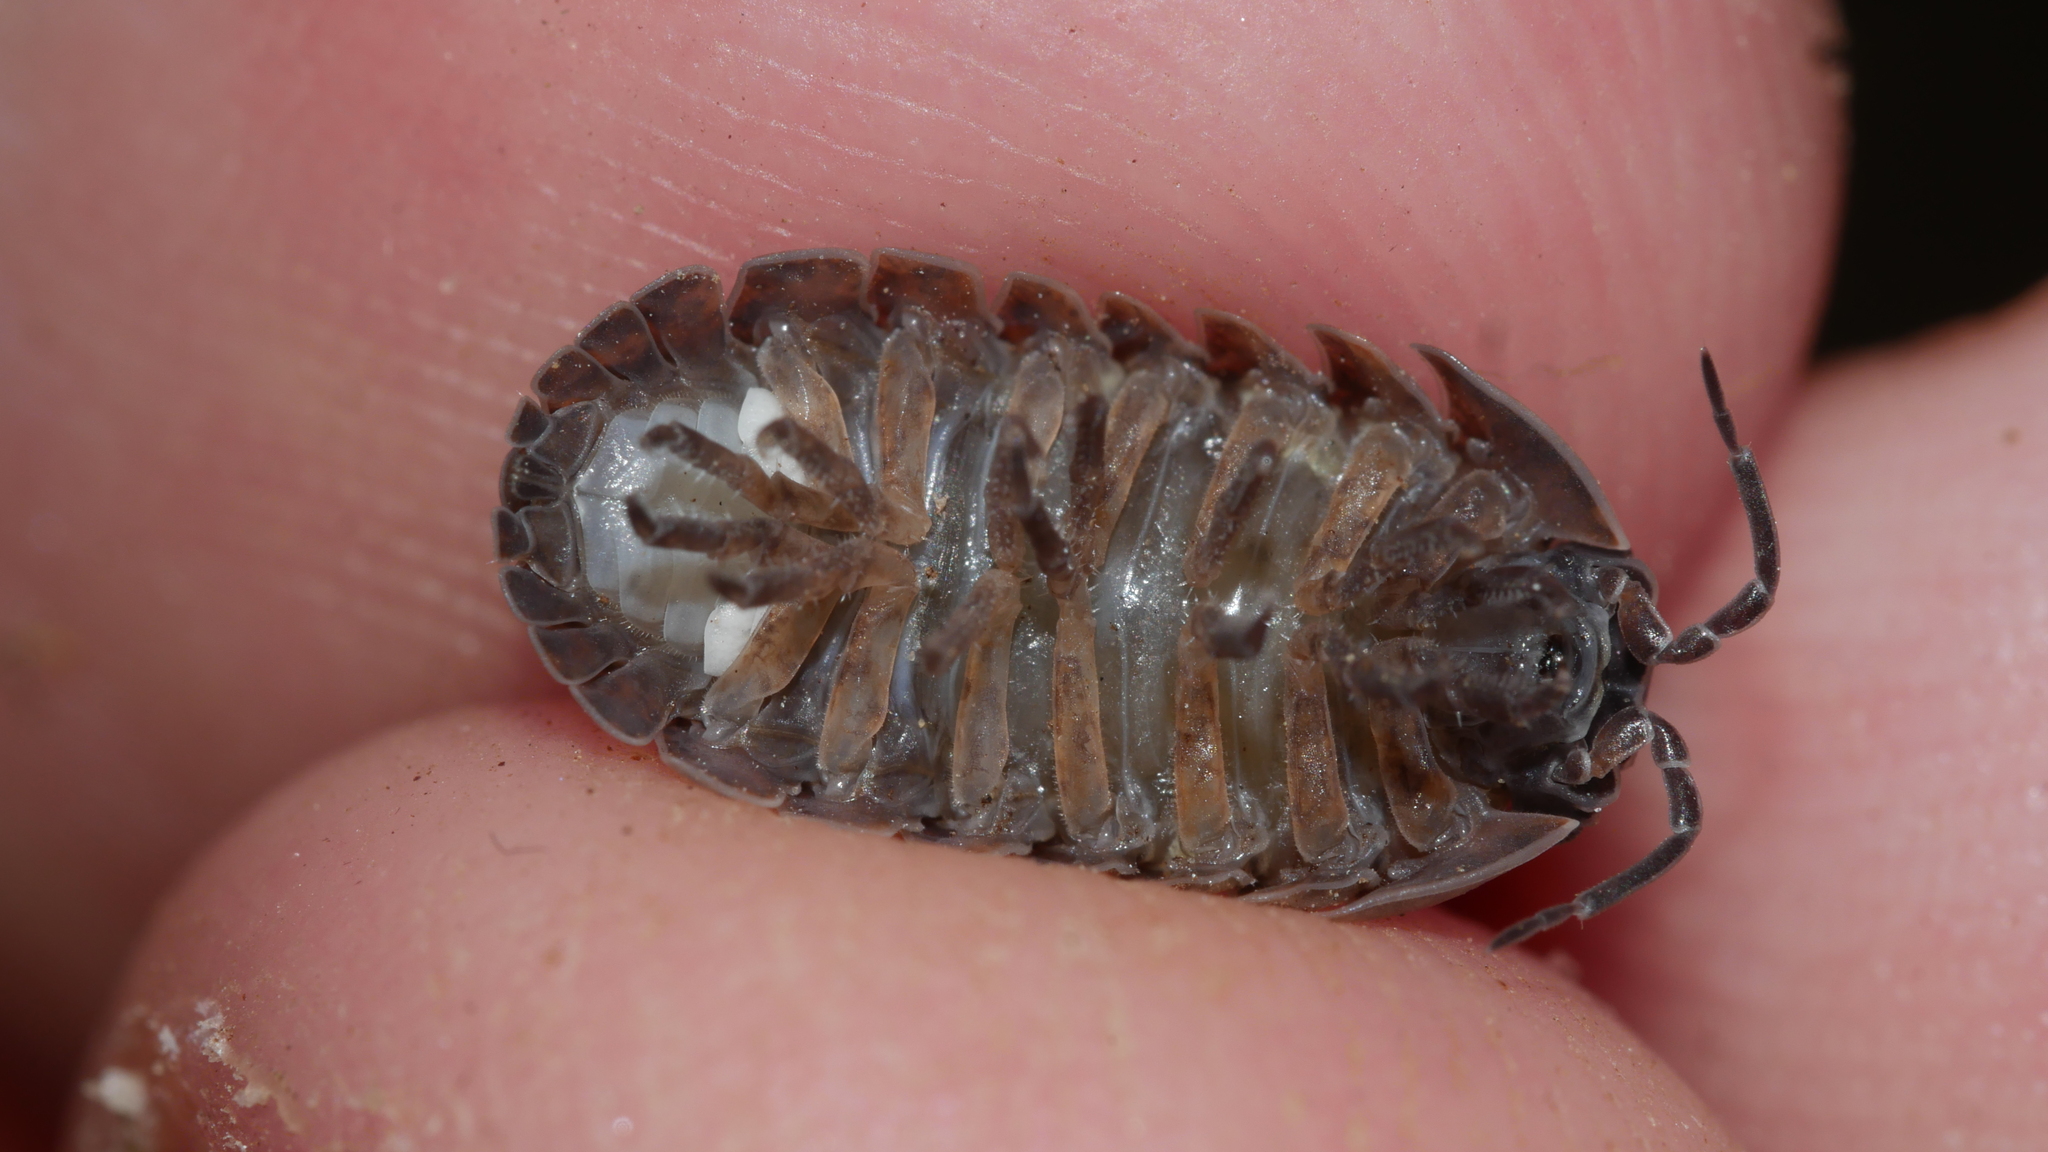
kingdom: Animalia
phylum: Arthropoda
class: Malacostraca
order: Isopoda
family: Armadillidiidae
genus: Armadillidium
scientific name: Armadillidium vulgare
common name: Common pill woodlouse
